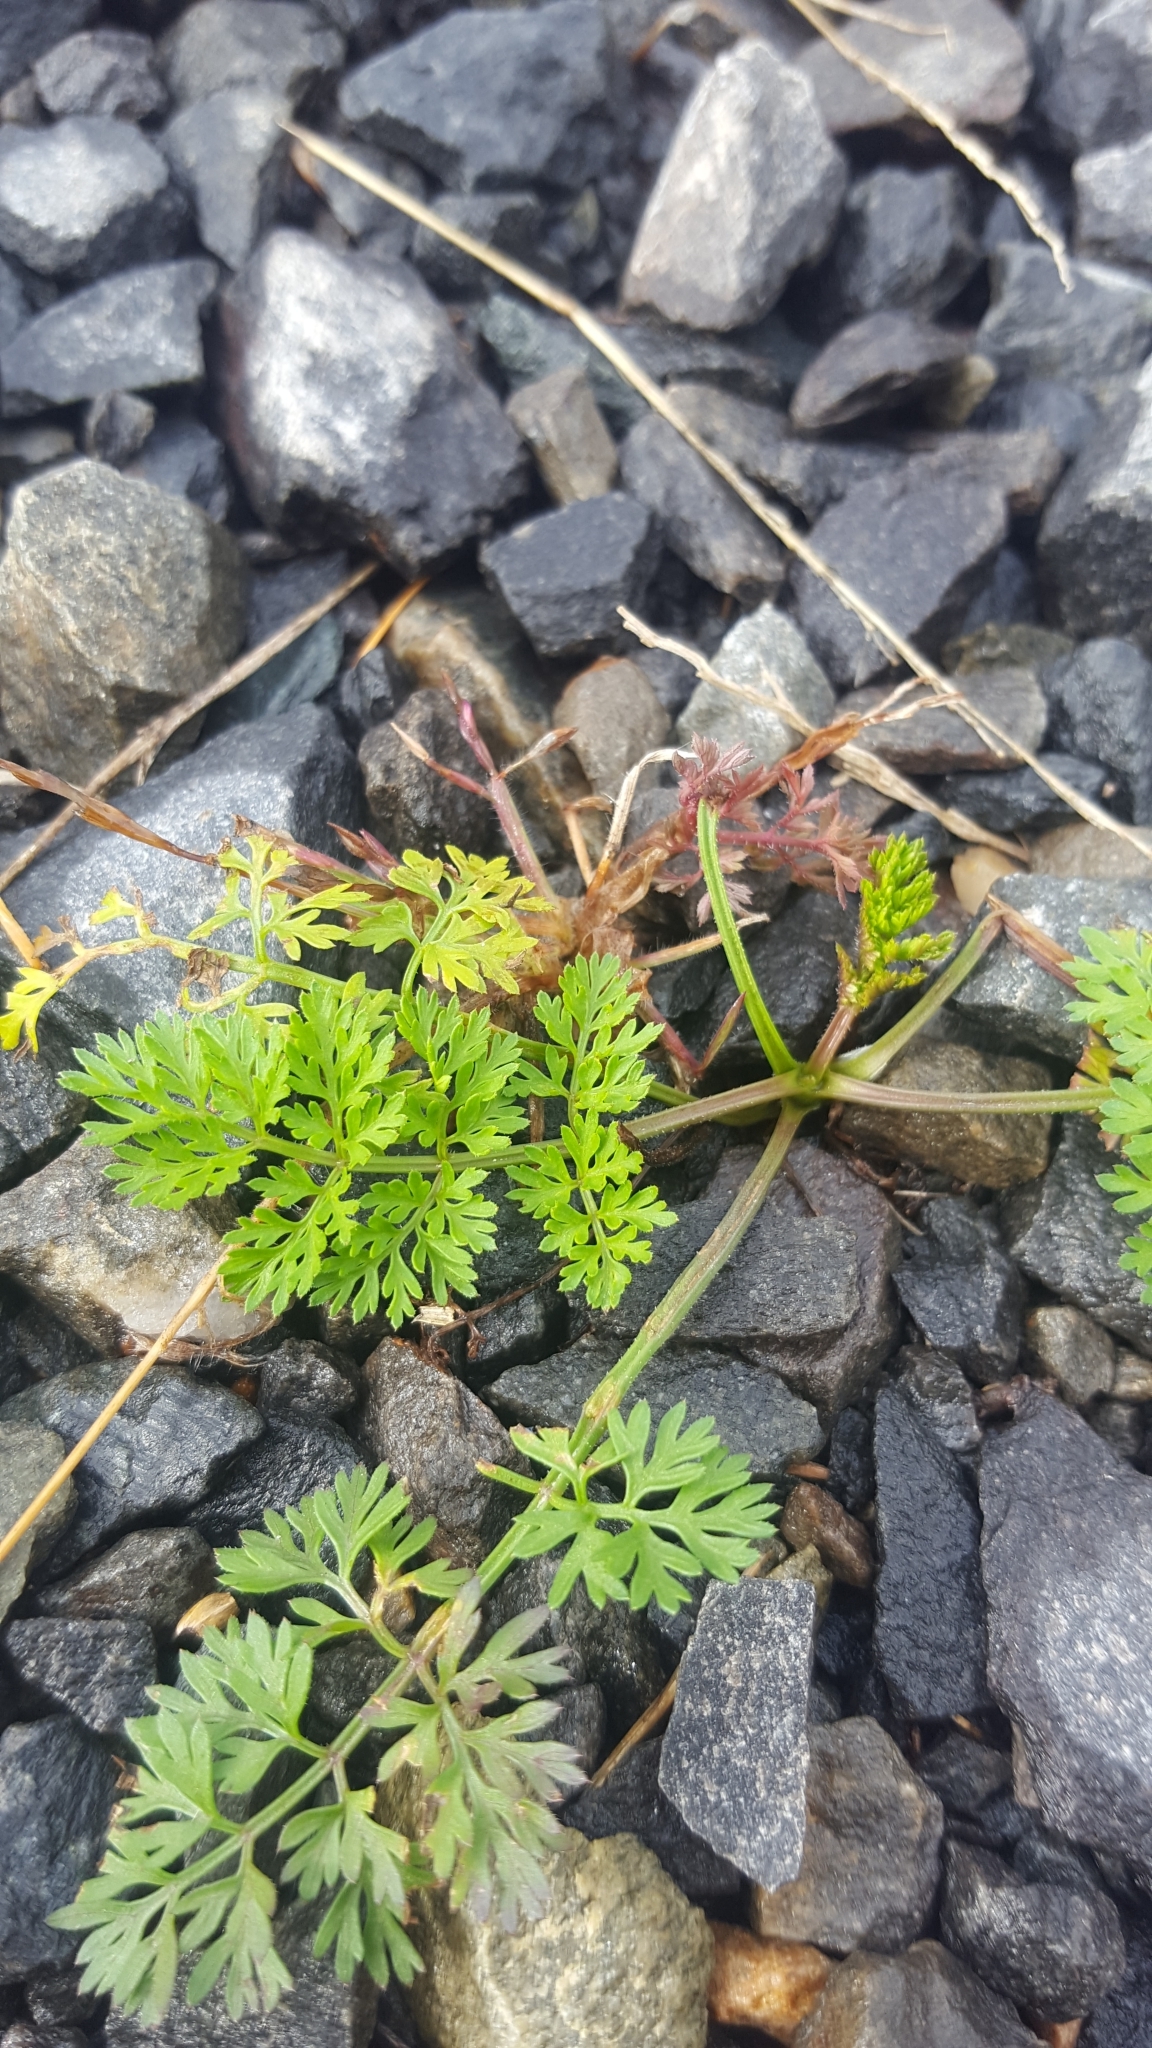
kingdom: Plantae
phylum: Tracheophyta
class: Magnoliopsida
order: Apiales
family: Apiaceae
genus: Daucus
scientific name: Daucus carota
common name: Wild carrot
